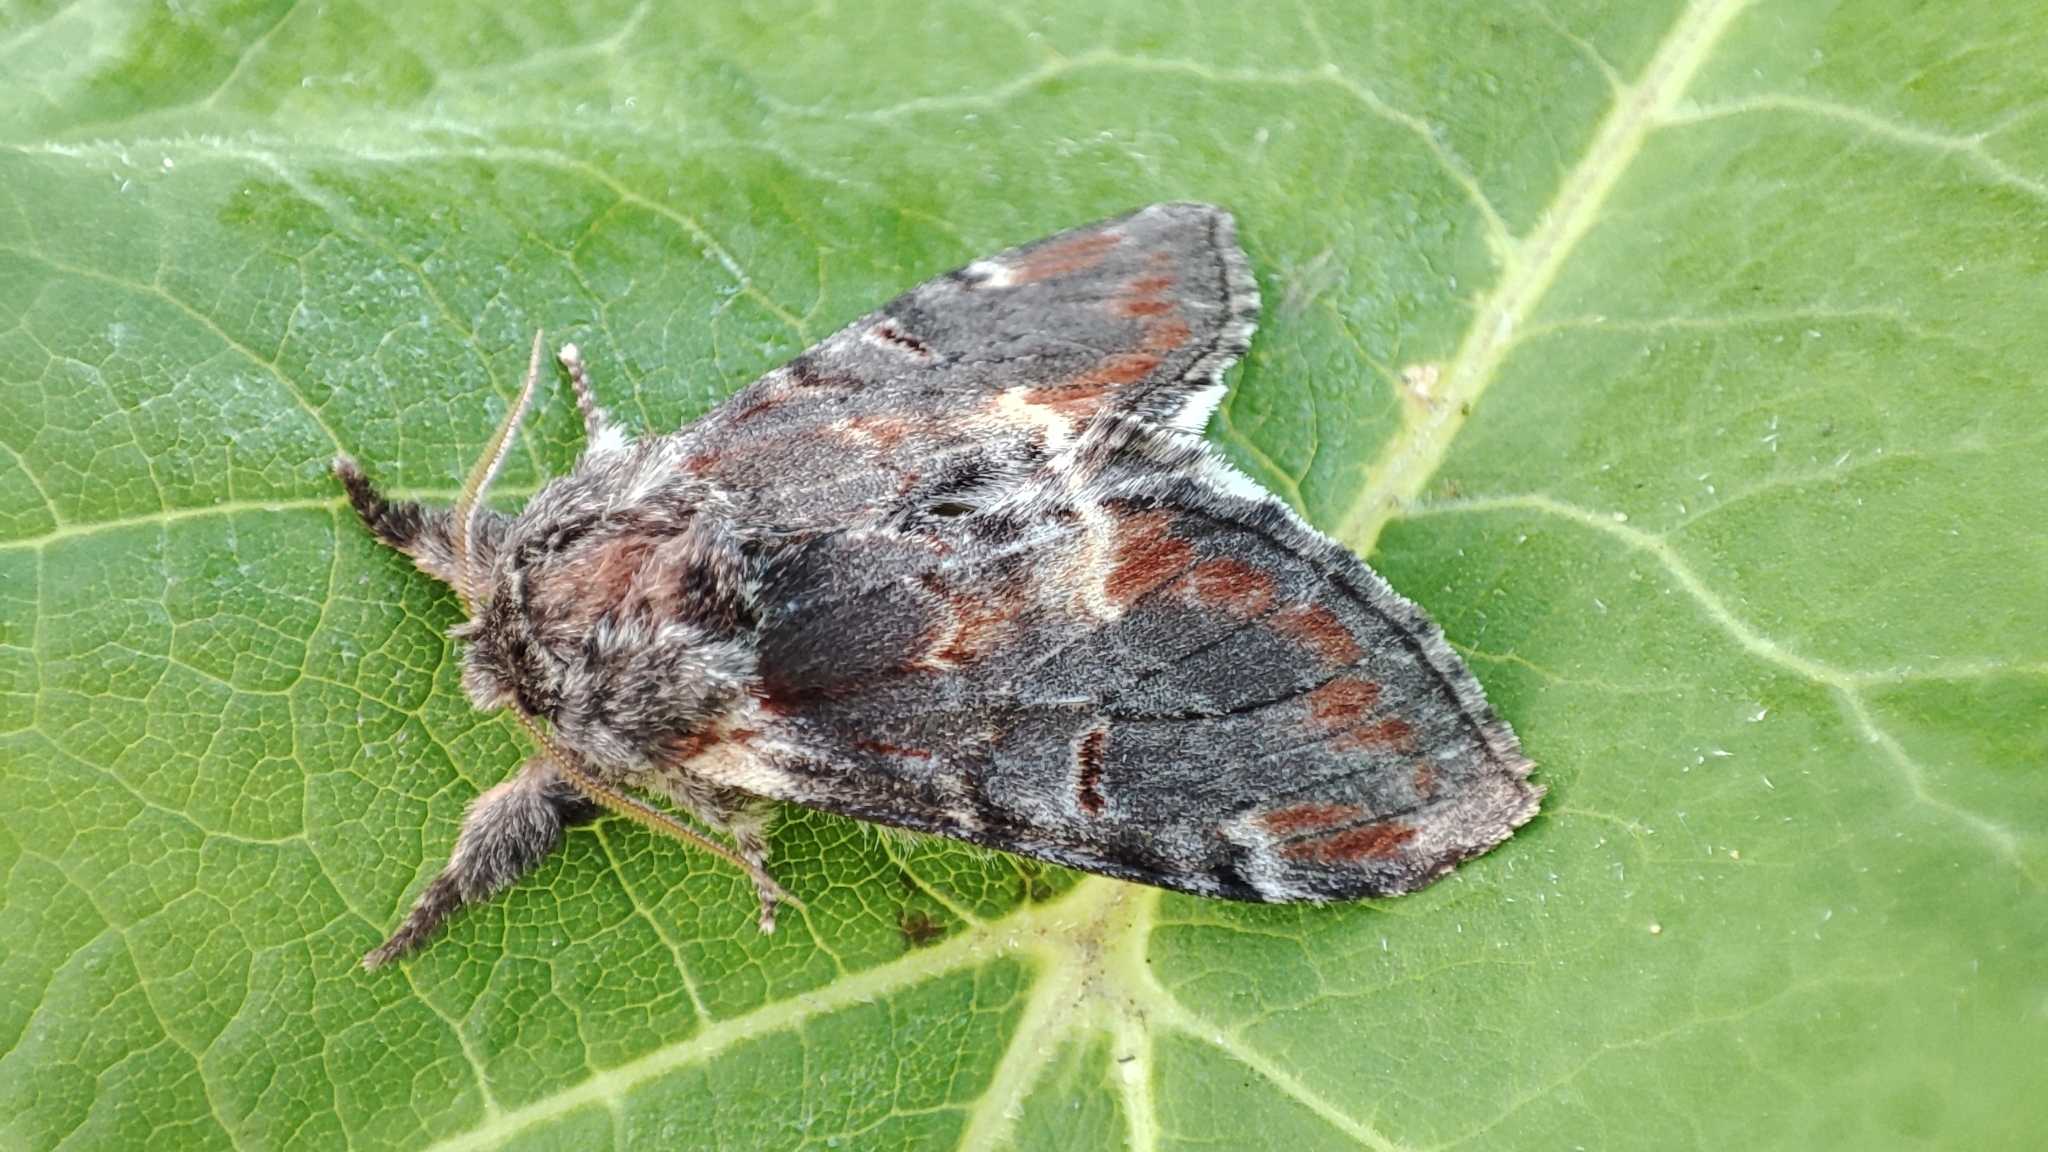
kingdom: Animalia
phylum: Arthropoda
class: Insecta
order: Lepidoptera
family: Notodontidae
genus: Notodonta
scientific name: Notodonta dromedarius
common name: Iron prominent
